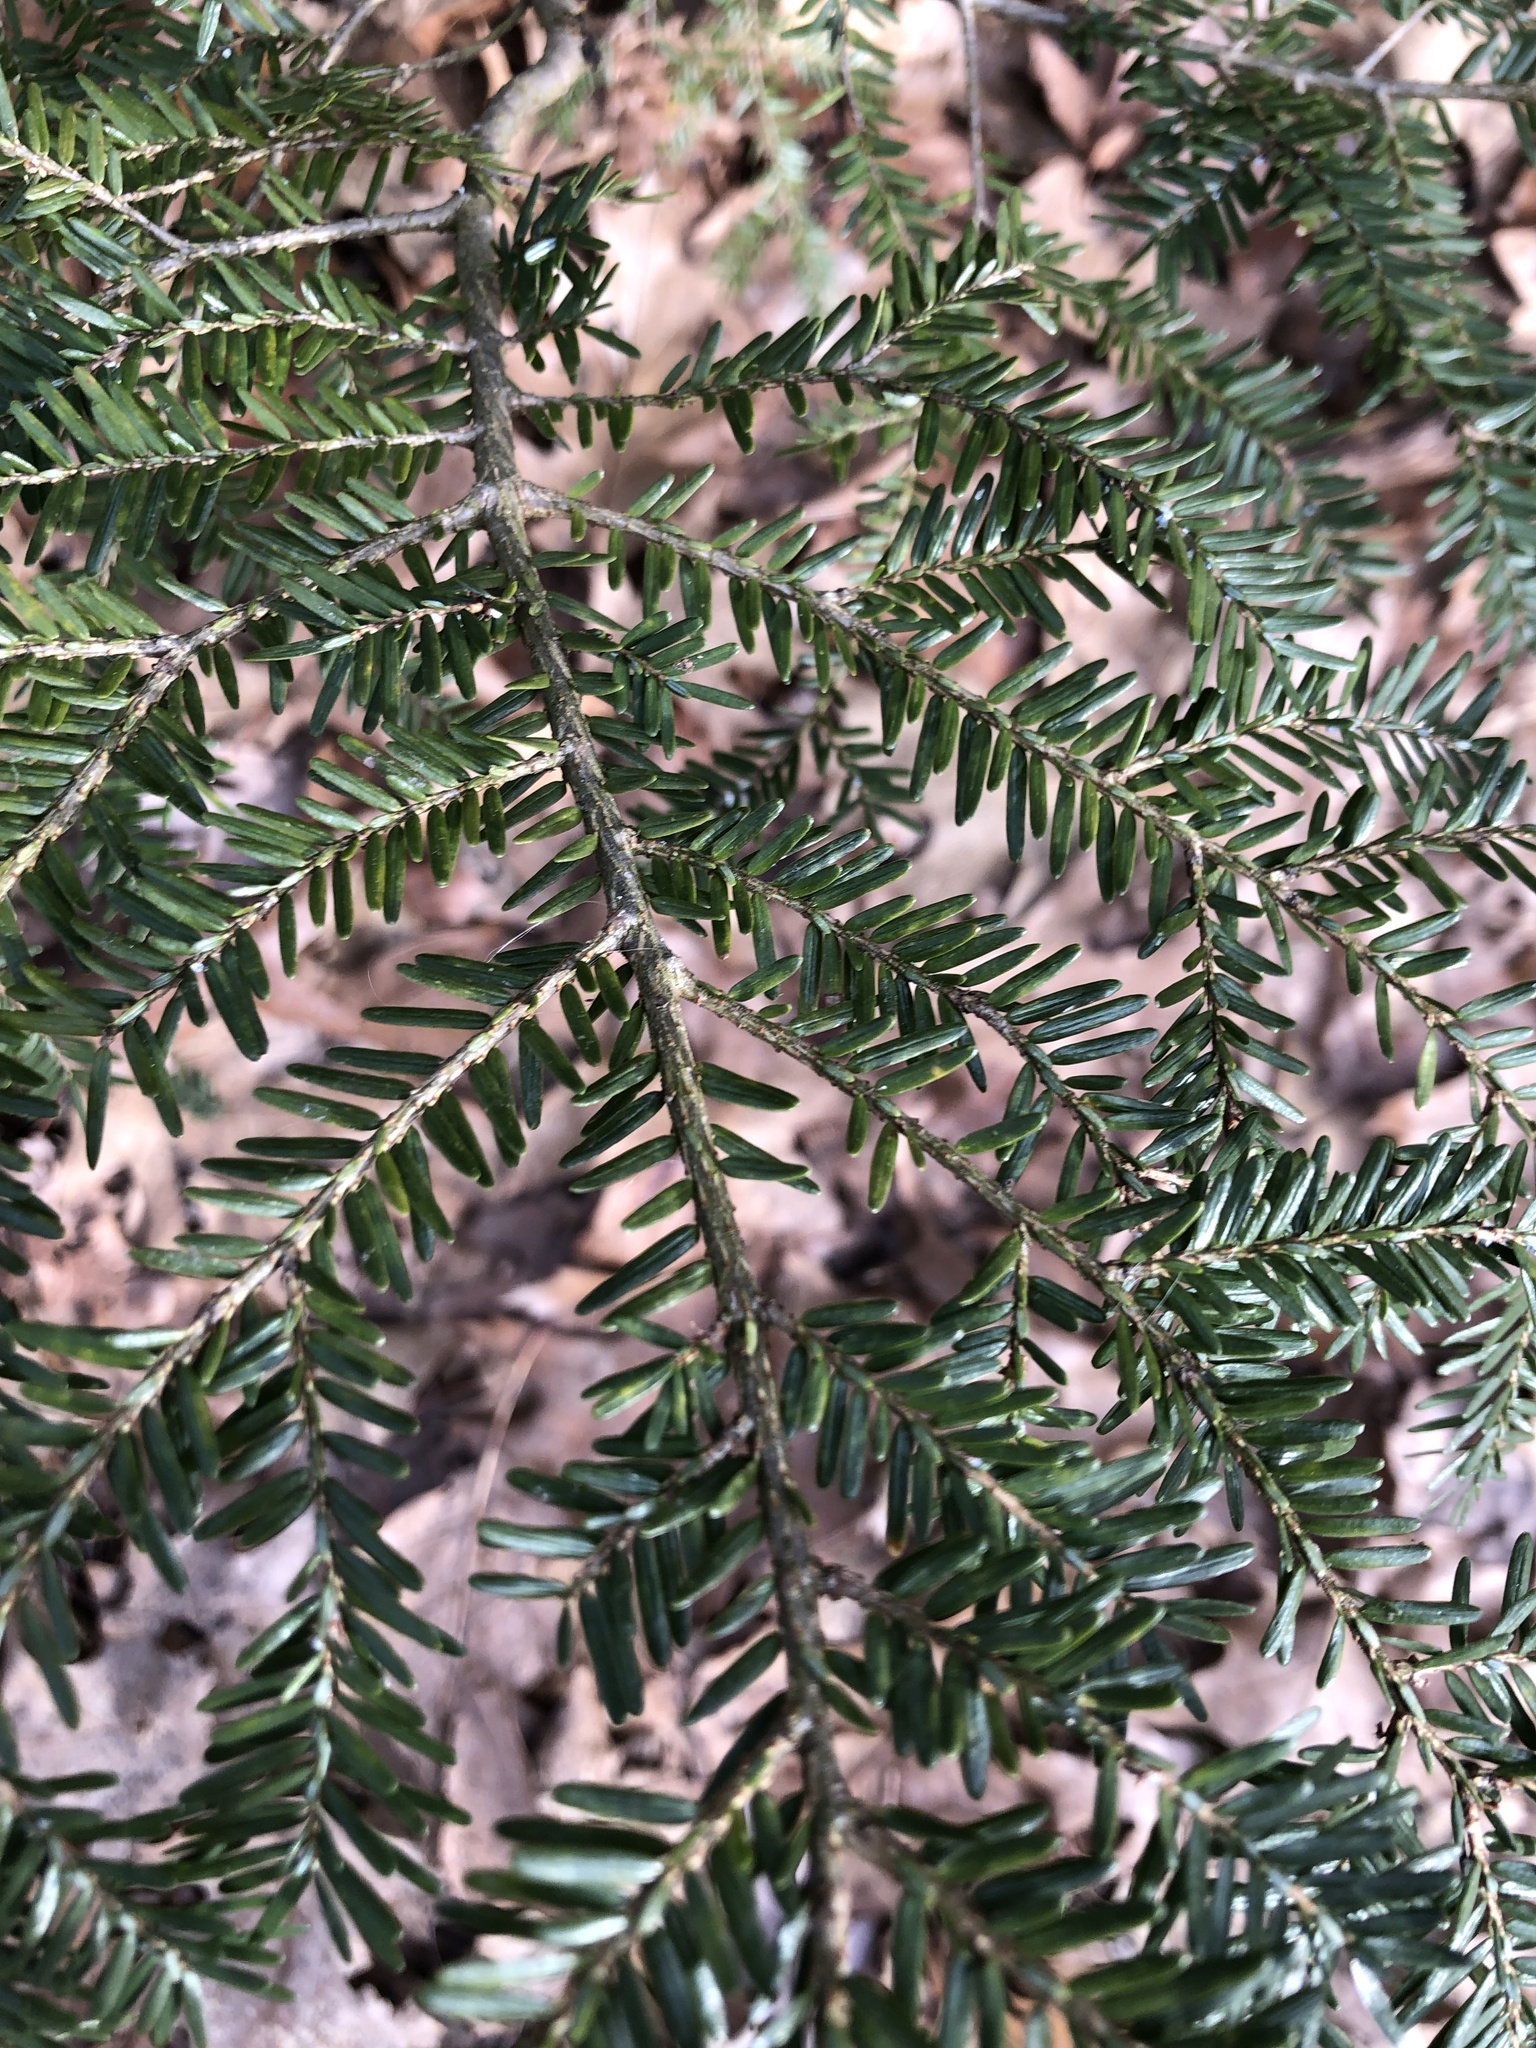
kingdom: Plantae
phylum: Tracheophyta
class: Pinopsida
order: Pinales
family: Pinaceae
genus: Tsuga
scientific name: Tsuga canadensis
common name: Eastern hemlock
